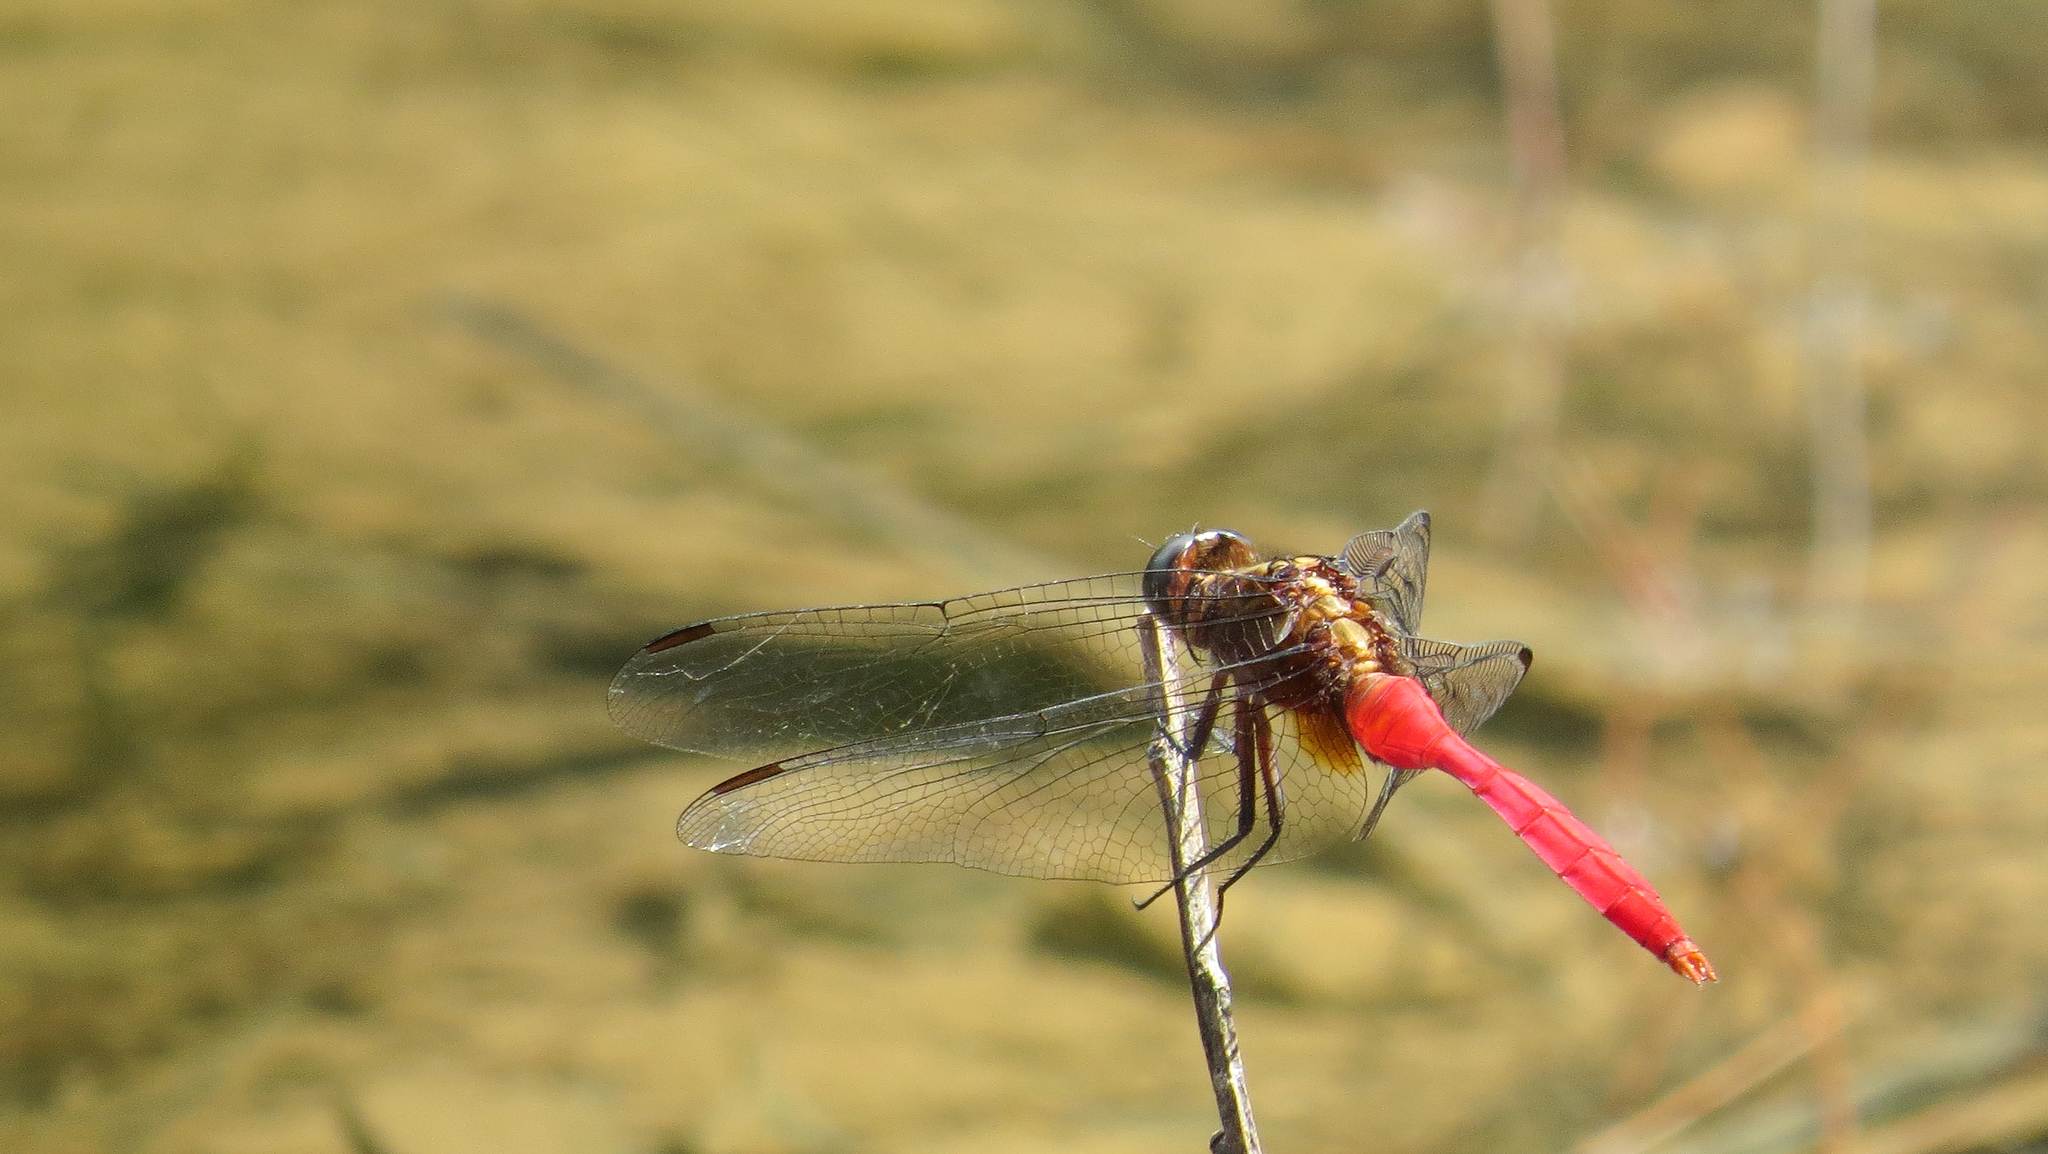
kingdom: Animalia
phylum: Arthropoda
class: Insecta
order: Odonata
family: Libellulidae
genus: Orthetrum
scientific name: Orthetrum villosovittatum
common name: Firery skimmer
